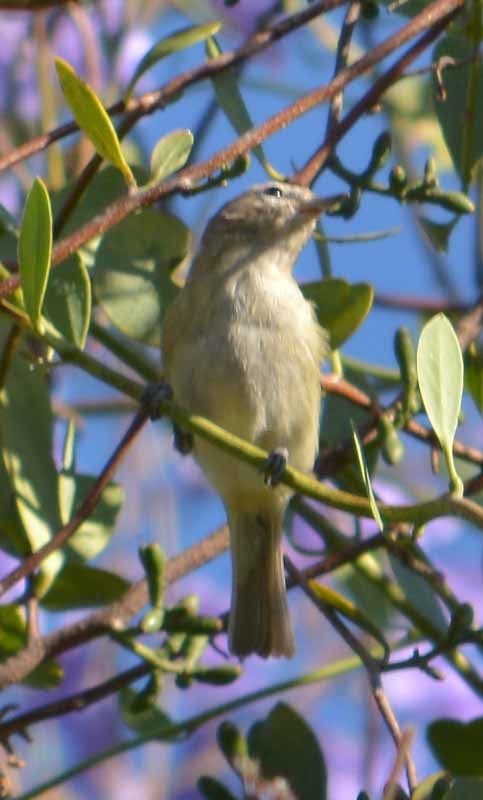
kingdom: Animalia
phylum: Chordata
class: Aves
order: Passeriformes
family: Vireonidae
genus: Vireo
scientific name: Vireo gilvus
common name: Warbling vireo
